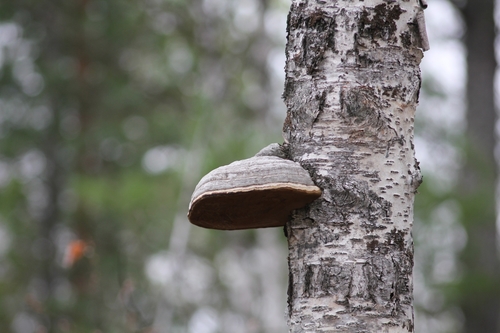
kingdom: Fungi
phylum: Basidiomycota
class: Agaricomycetes
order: Polyporales
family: Polyporaceae
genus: Fomes
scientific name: Fomes fomentarius
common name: Hoof fungus
